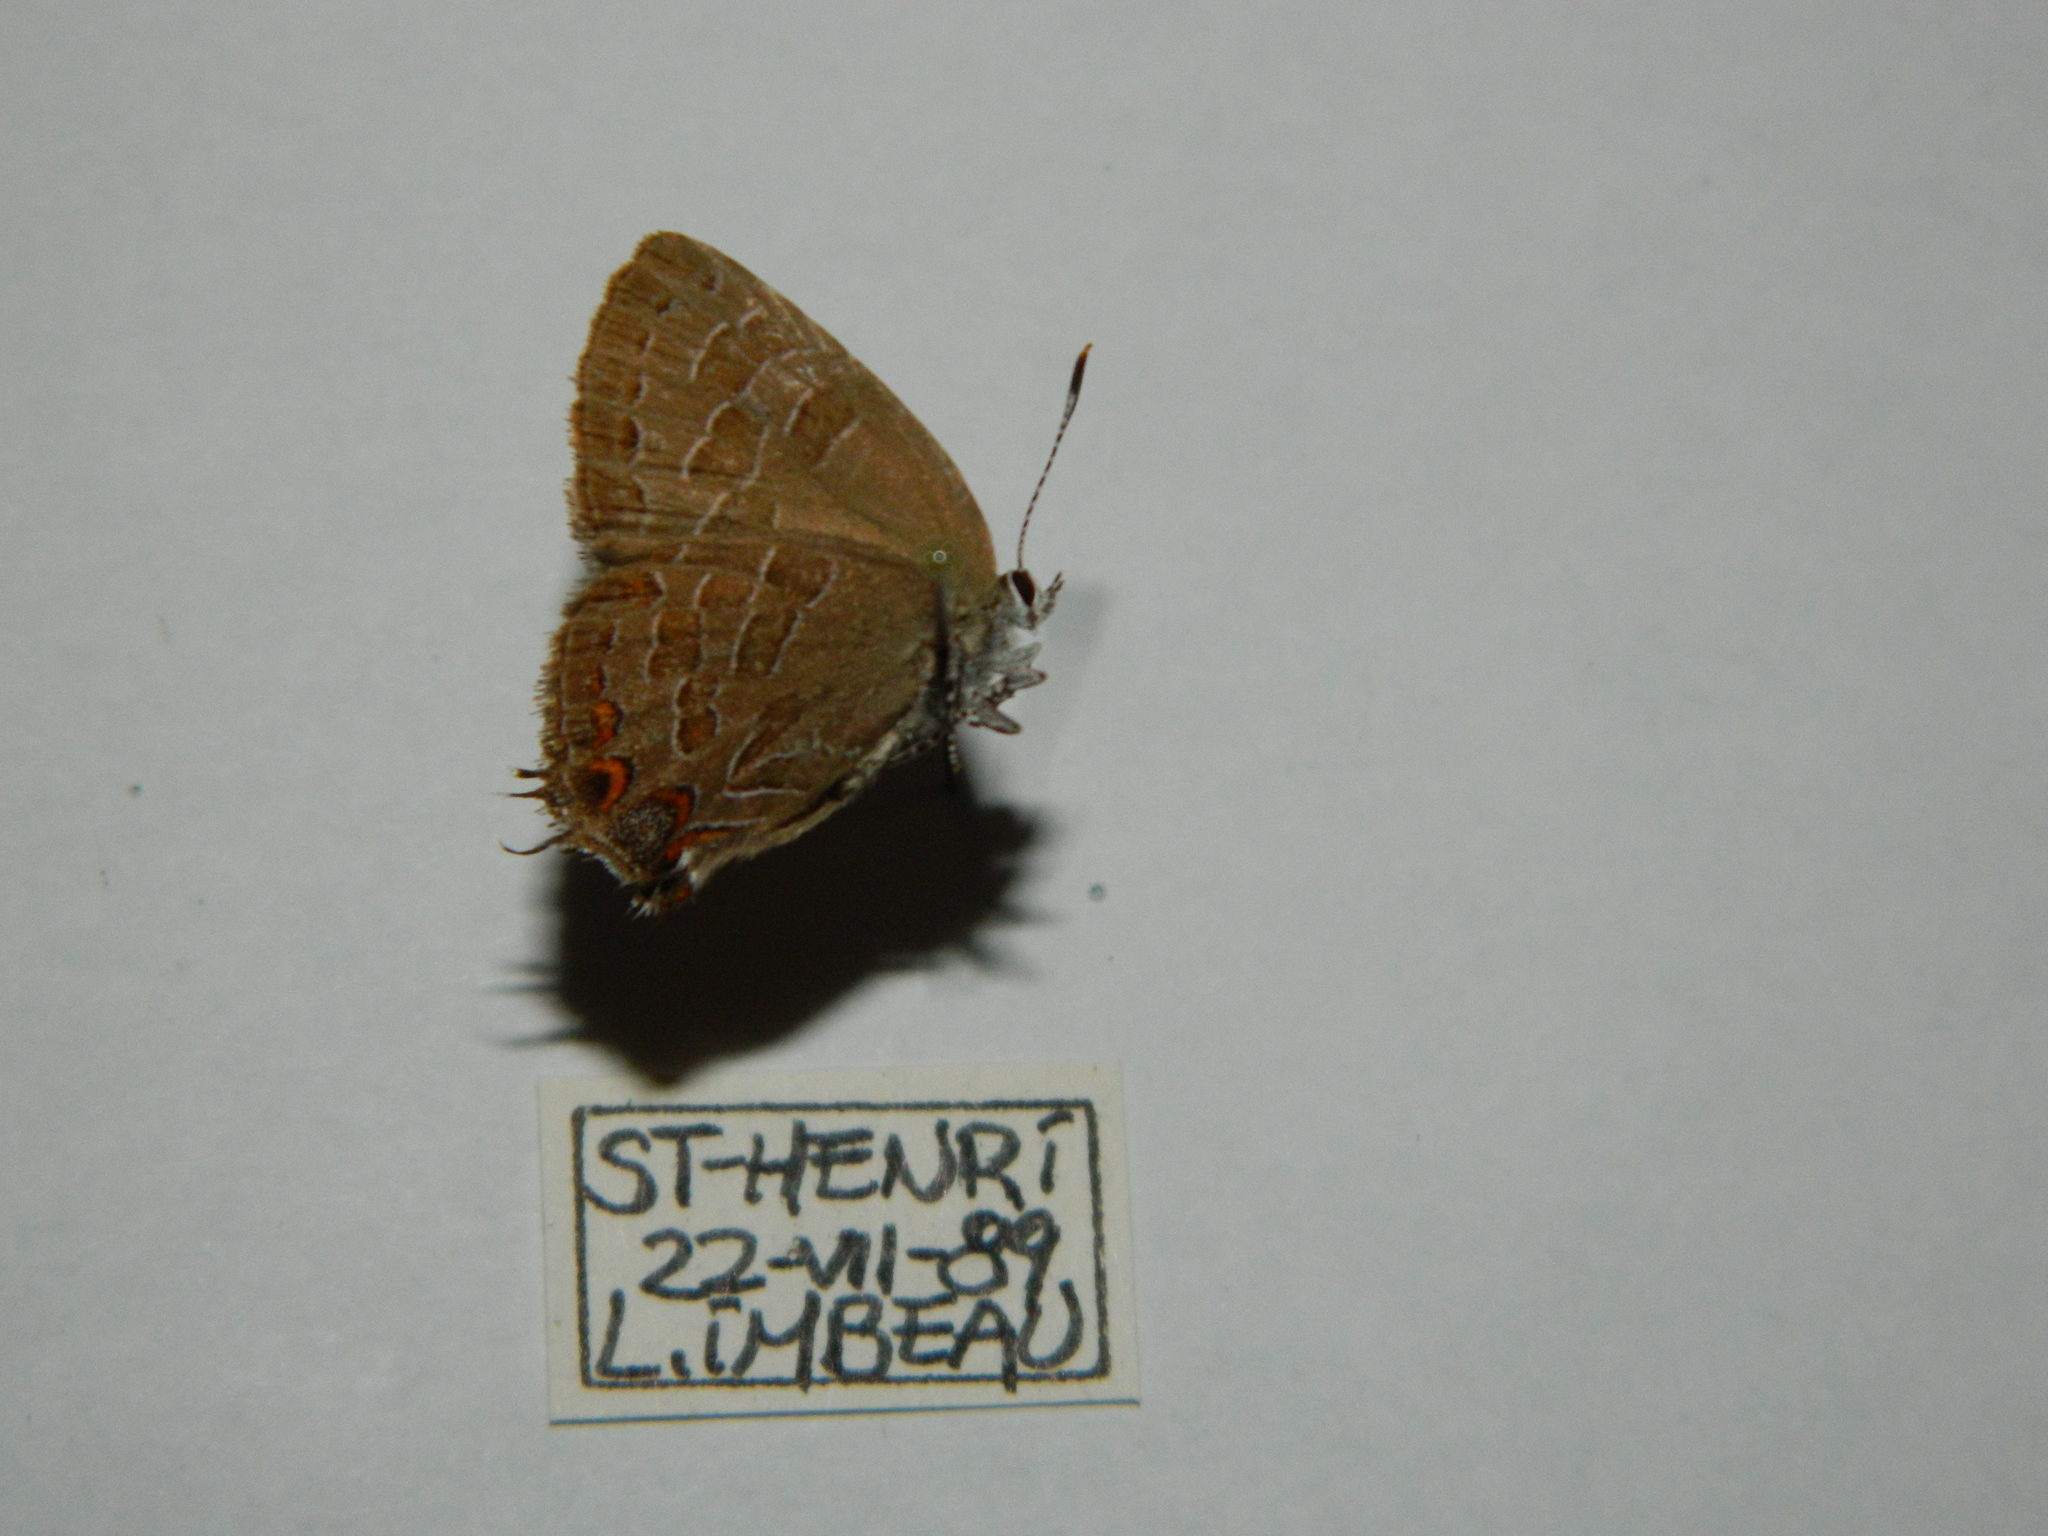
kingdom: Animalia
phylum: Arthropoda
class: Insecta
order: Lepidoptera
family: Lycaenidae
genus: Satyrium
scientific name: Satyrium liparops
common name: Striped hairstreak
